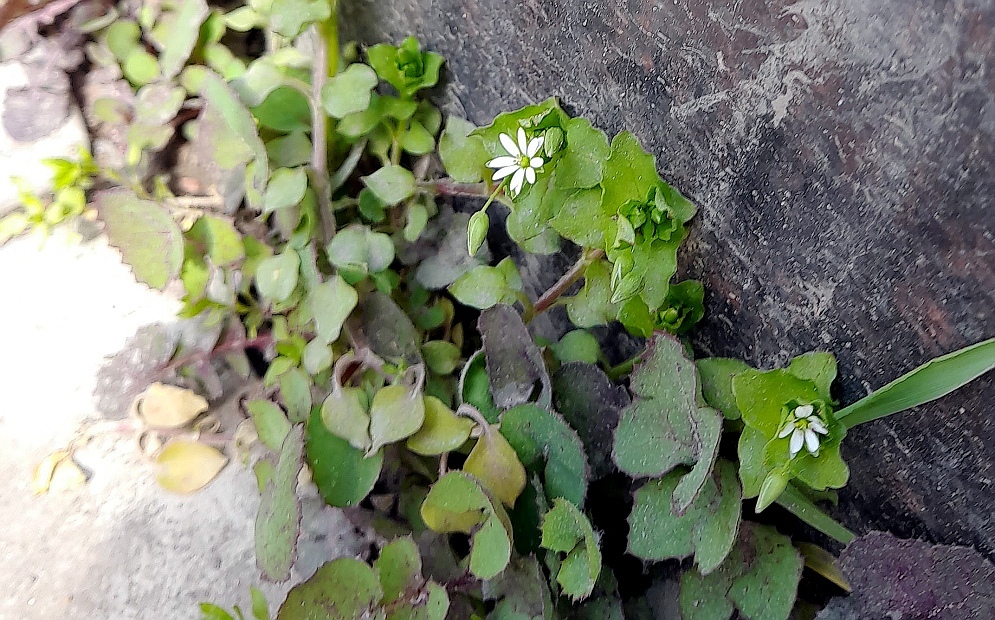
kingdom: Plantae
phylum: Tracheophyta
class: Magnoliopsida
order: Caryophyllales
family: Caryophyllaceae
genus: Stellaria
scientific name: Stellaria
